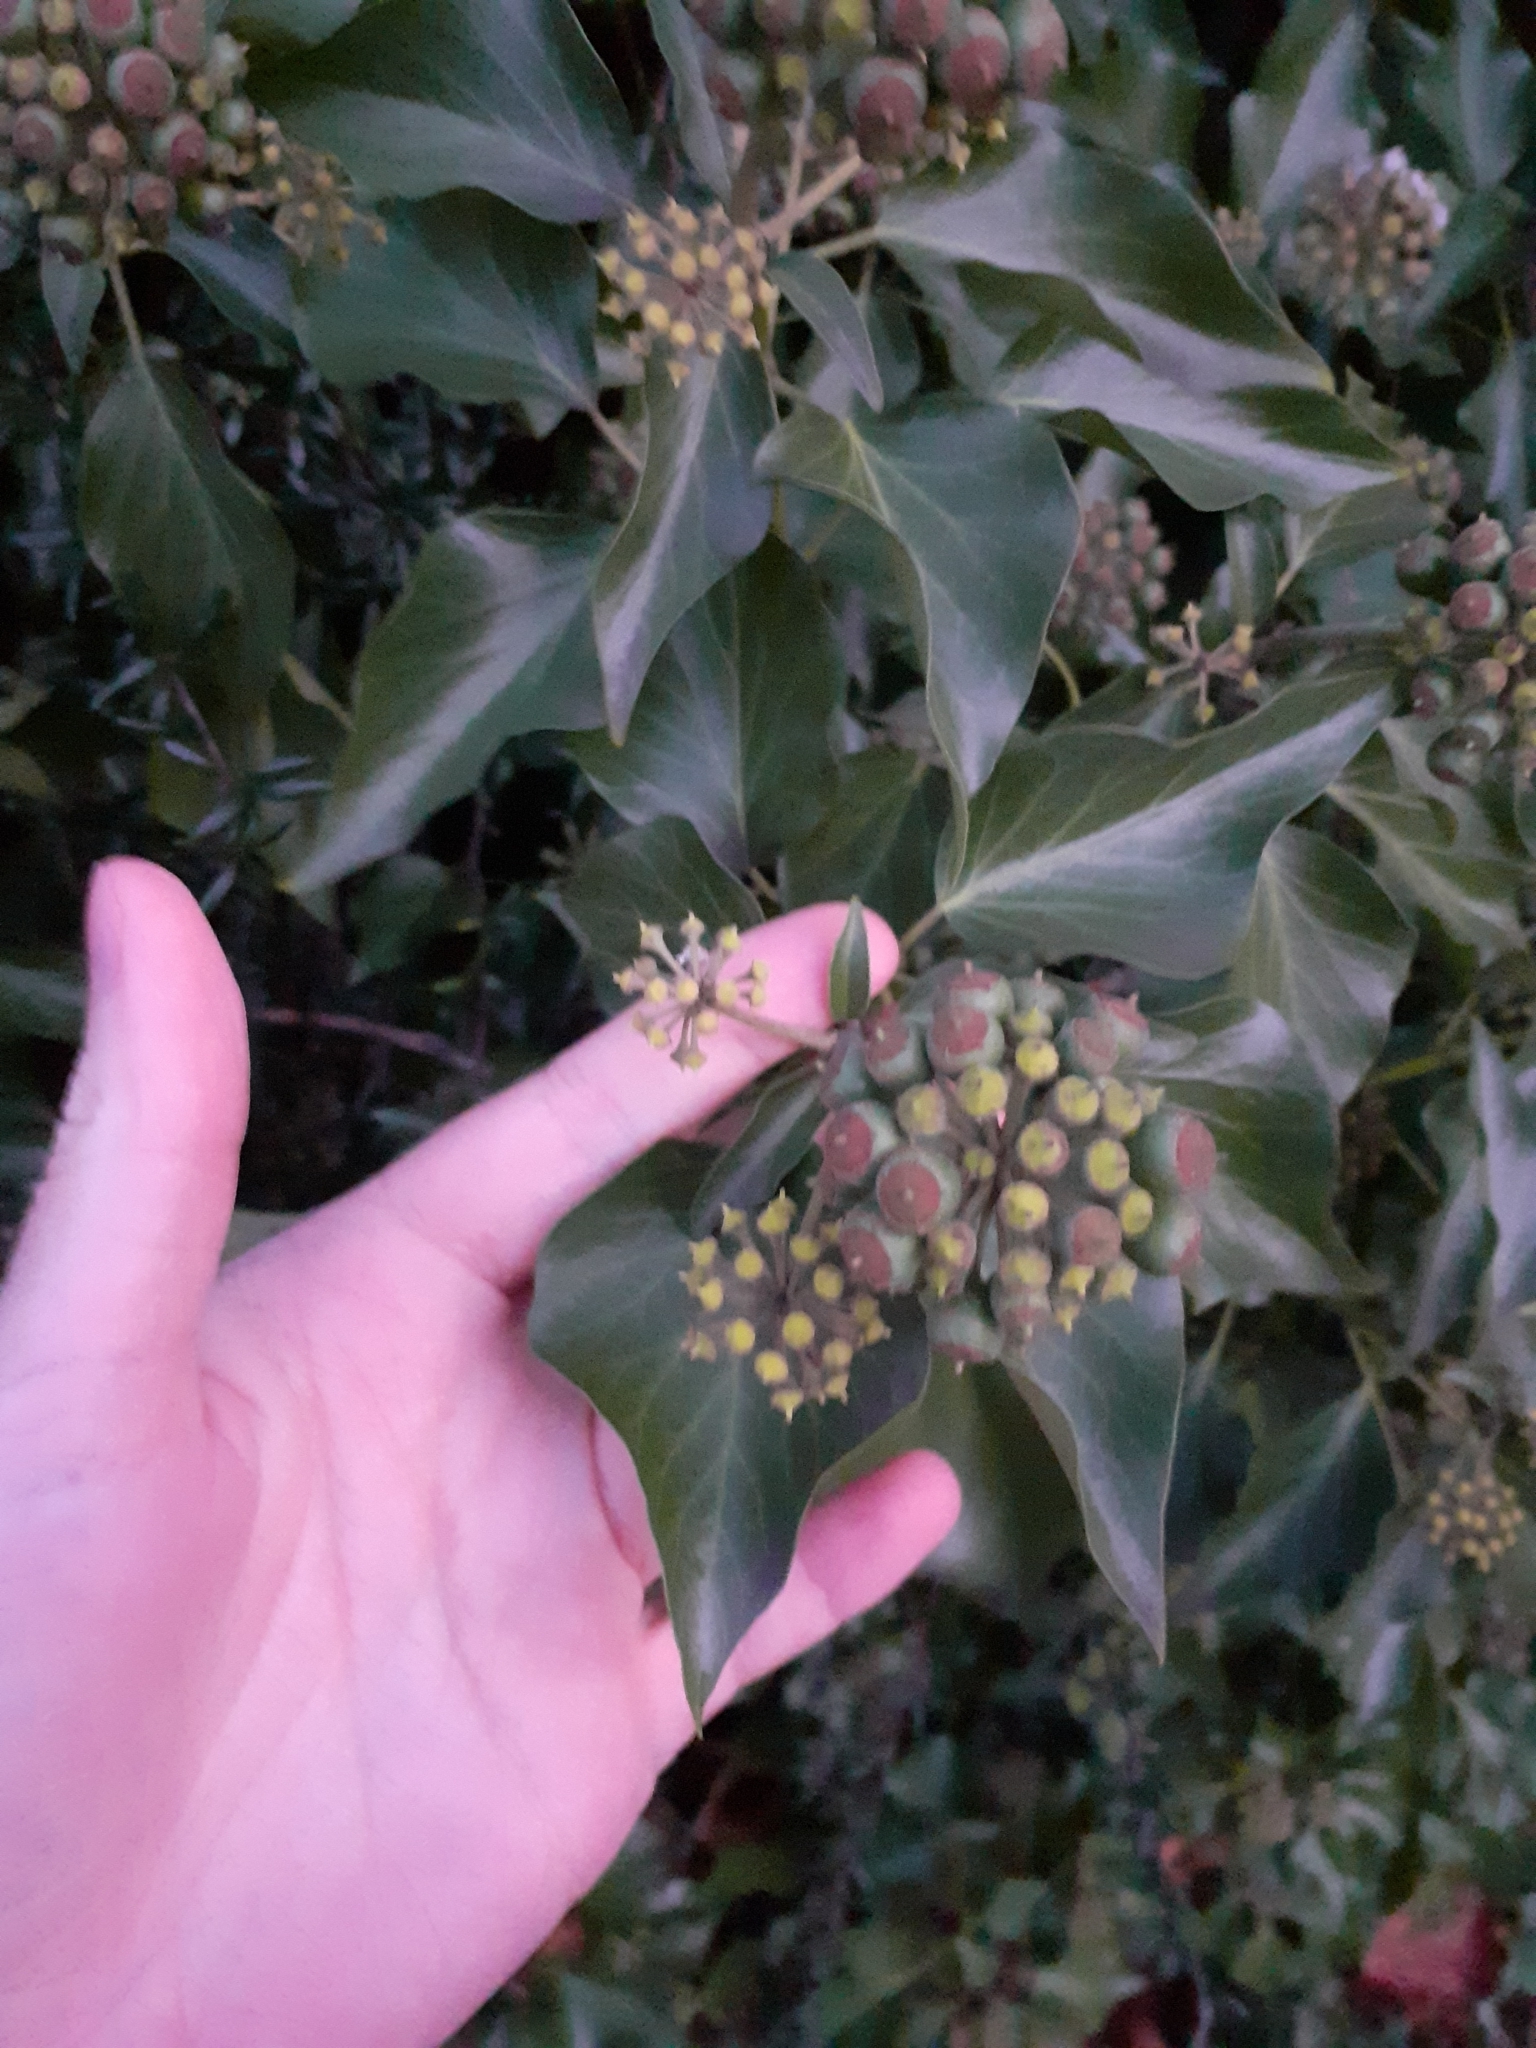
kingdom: Plantae
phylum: Tracheophyta
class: Magnoliopsida
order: Apiales
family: Araliaceae
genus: Hedera
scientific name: Hedera helix
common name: Ivy
